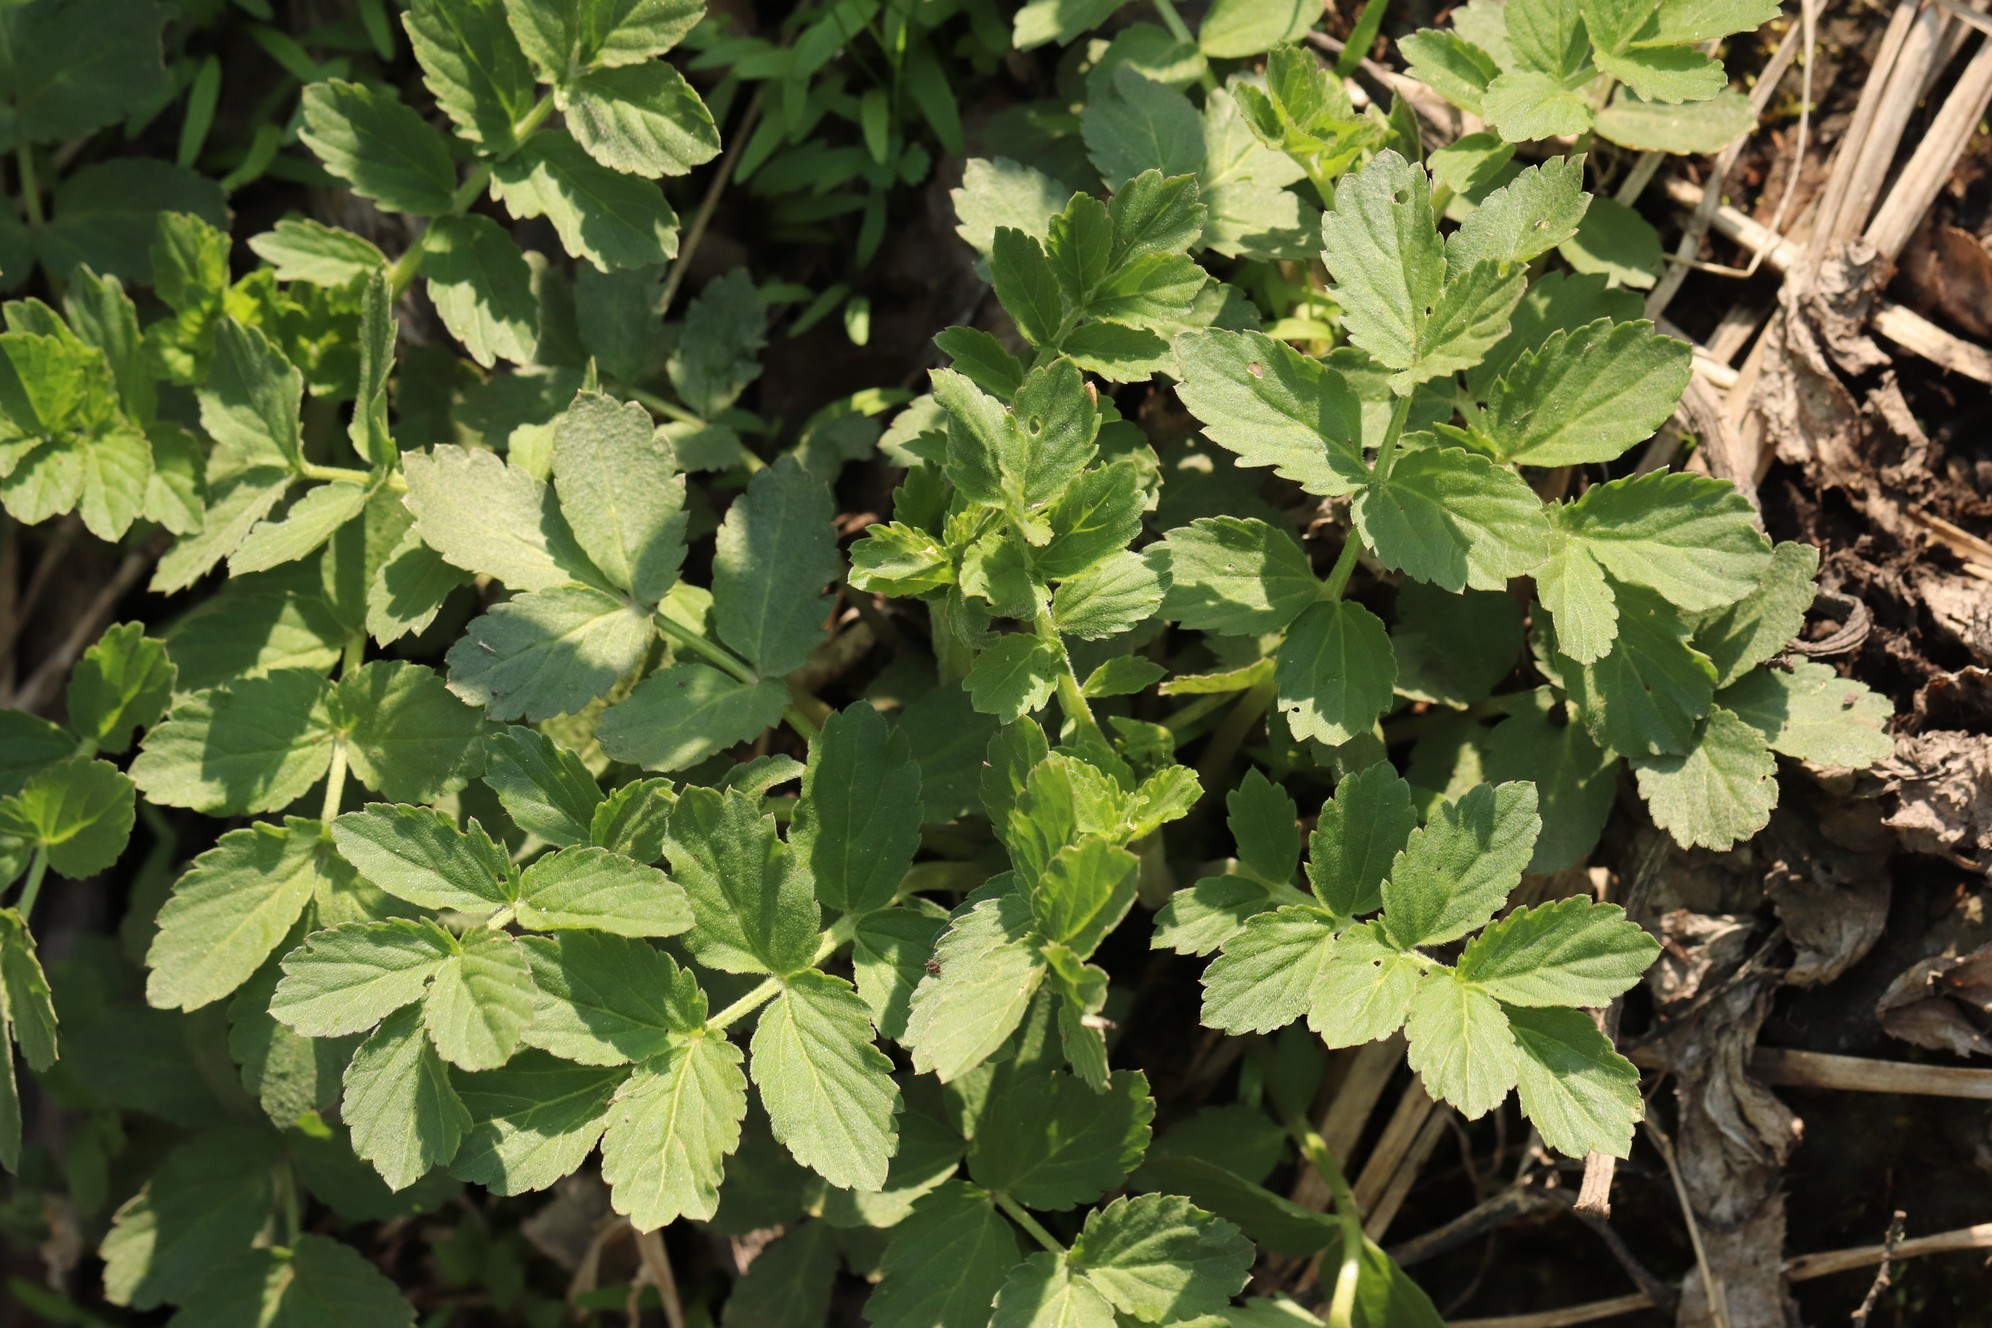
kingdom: Plantae
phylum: Tracheophyta
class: Magnoliopsida
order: Brassicales
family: Brassicaceae
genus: Cardamine
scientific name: Cardamine macrophylla
